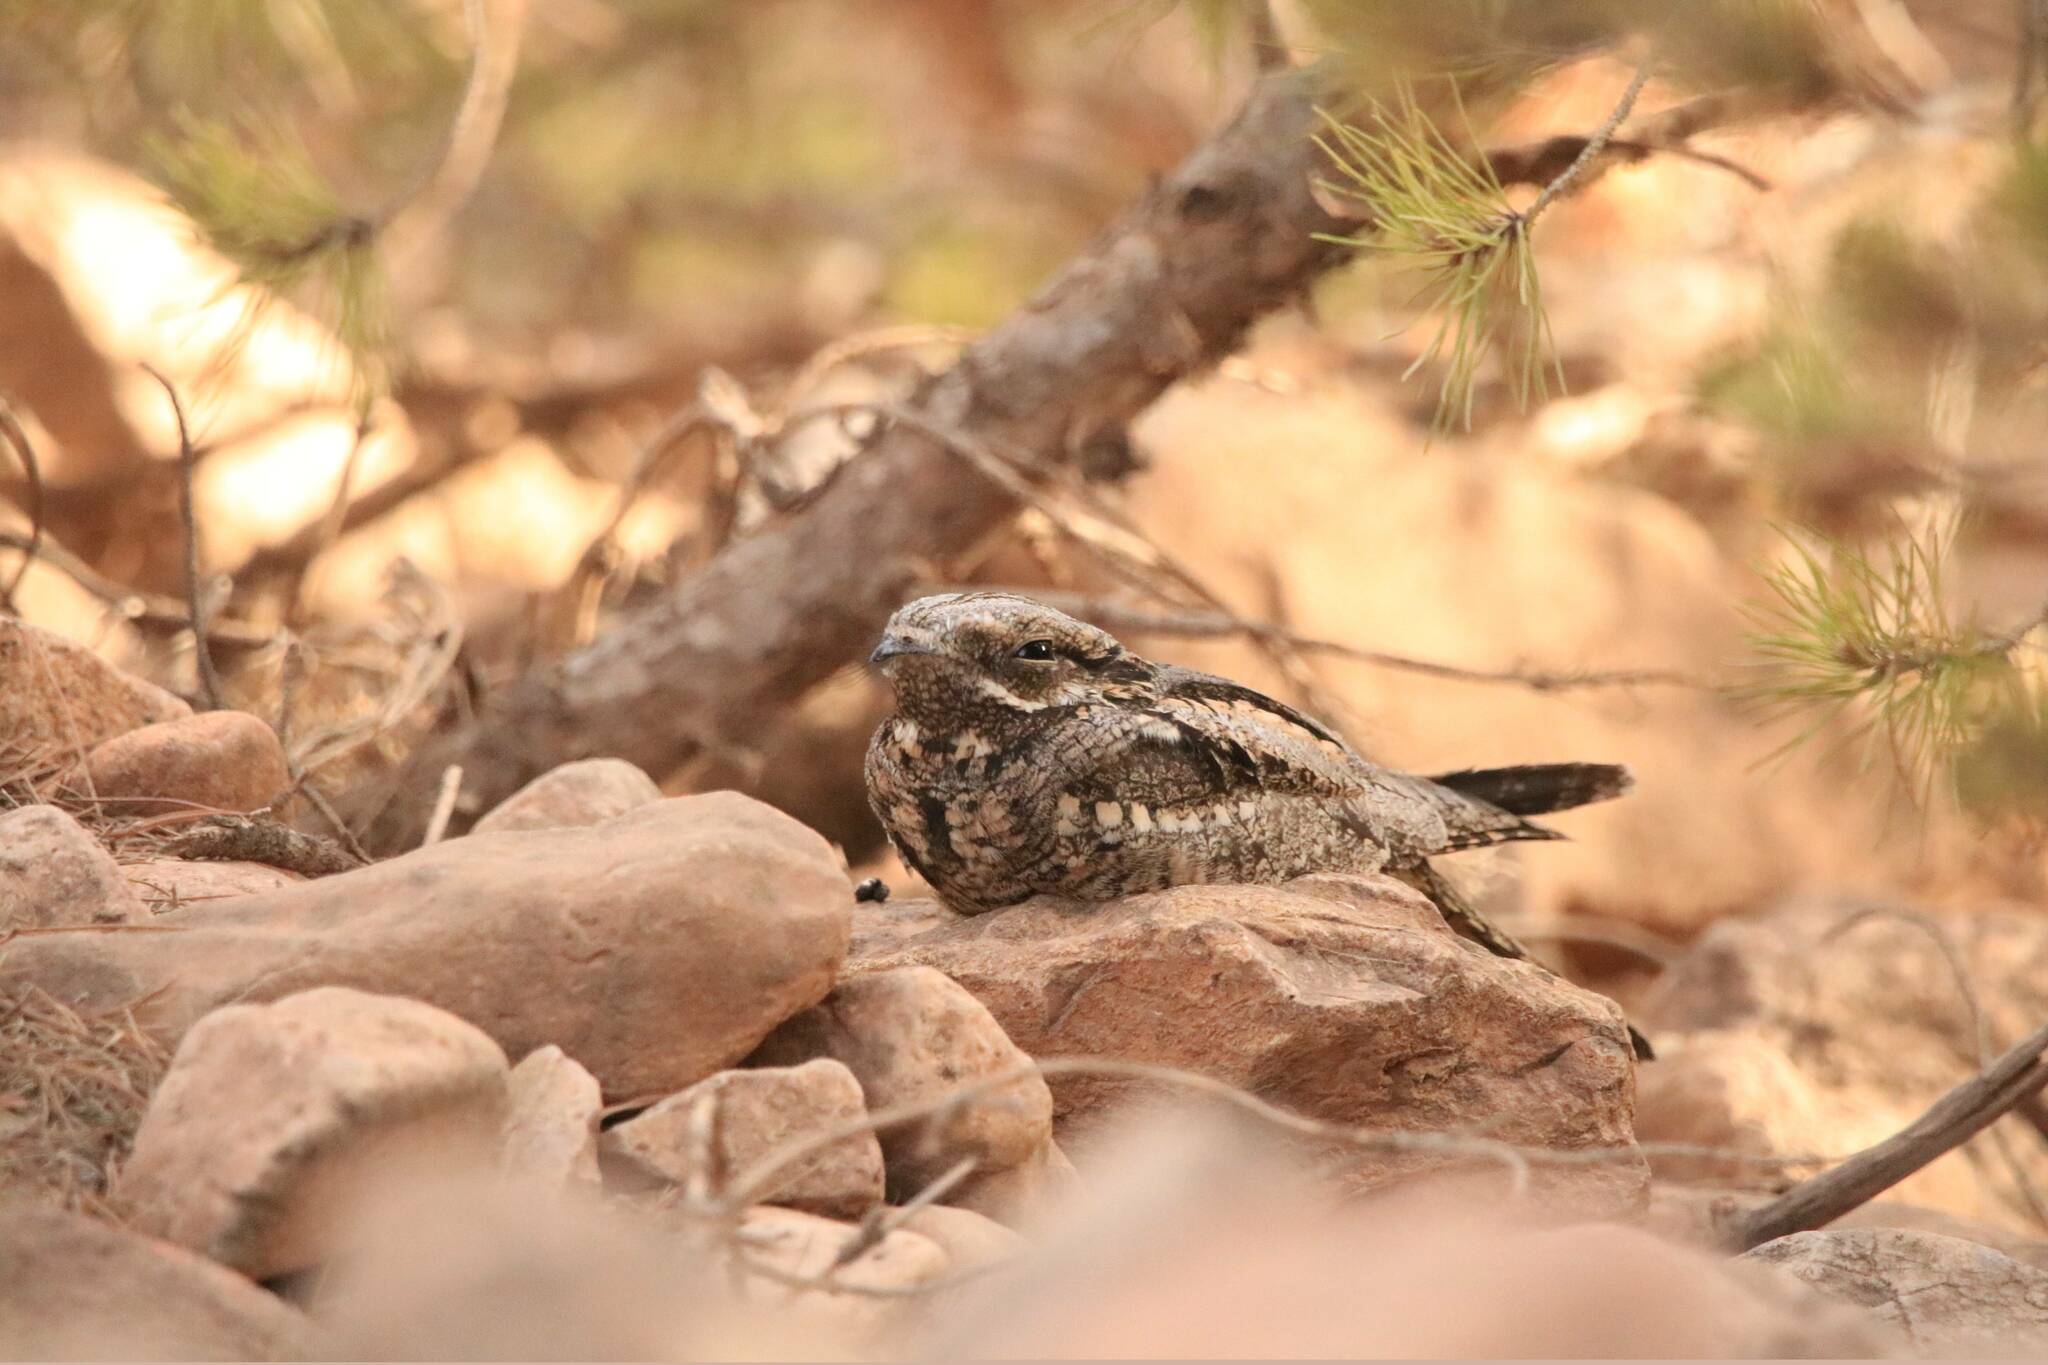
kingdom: Animalia
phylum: Chordata
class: Aves
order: Caprimulgiformes
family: Caprimulgidae
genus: Caprimulgus
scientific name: Caprimulgus europaeus
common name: European nightjar
